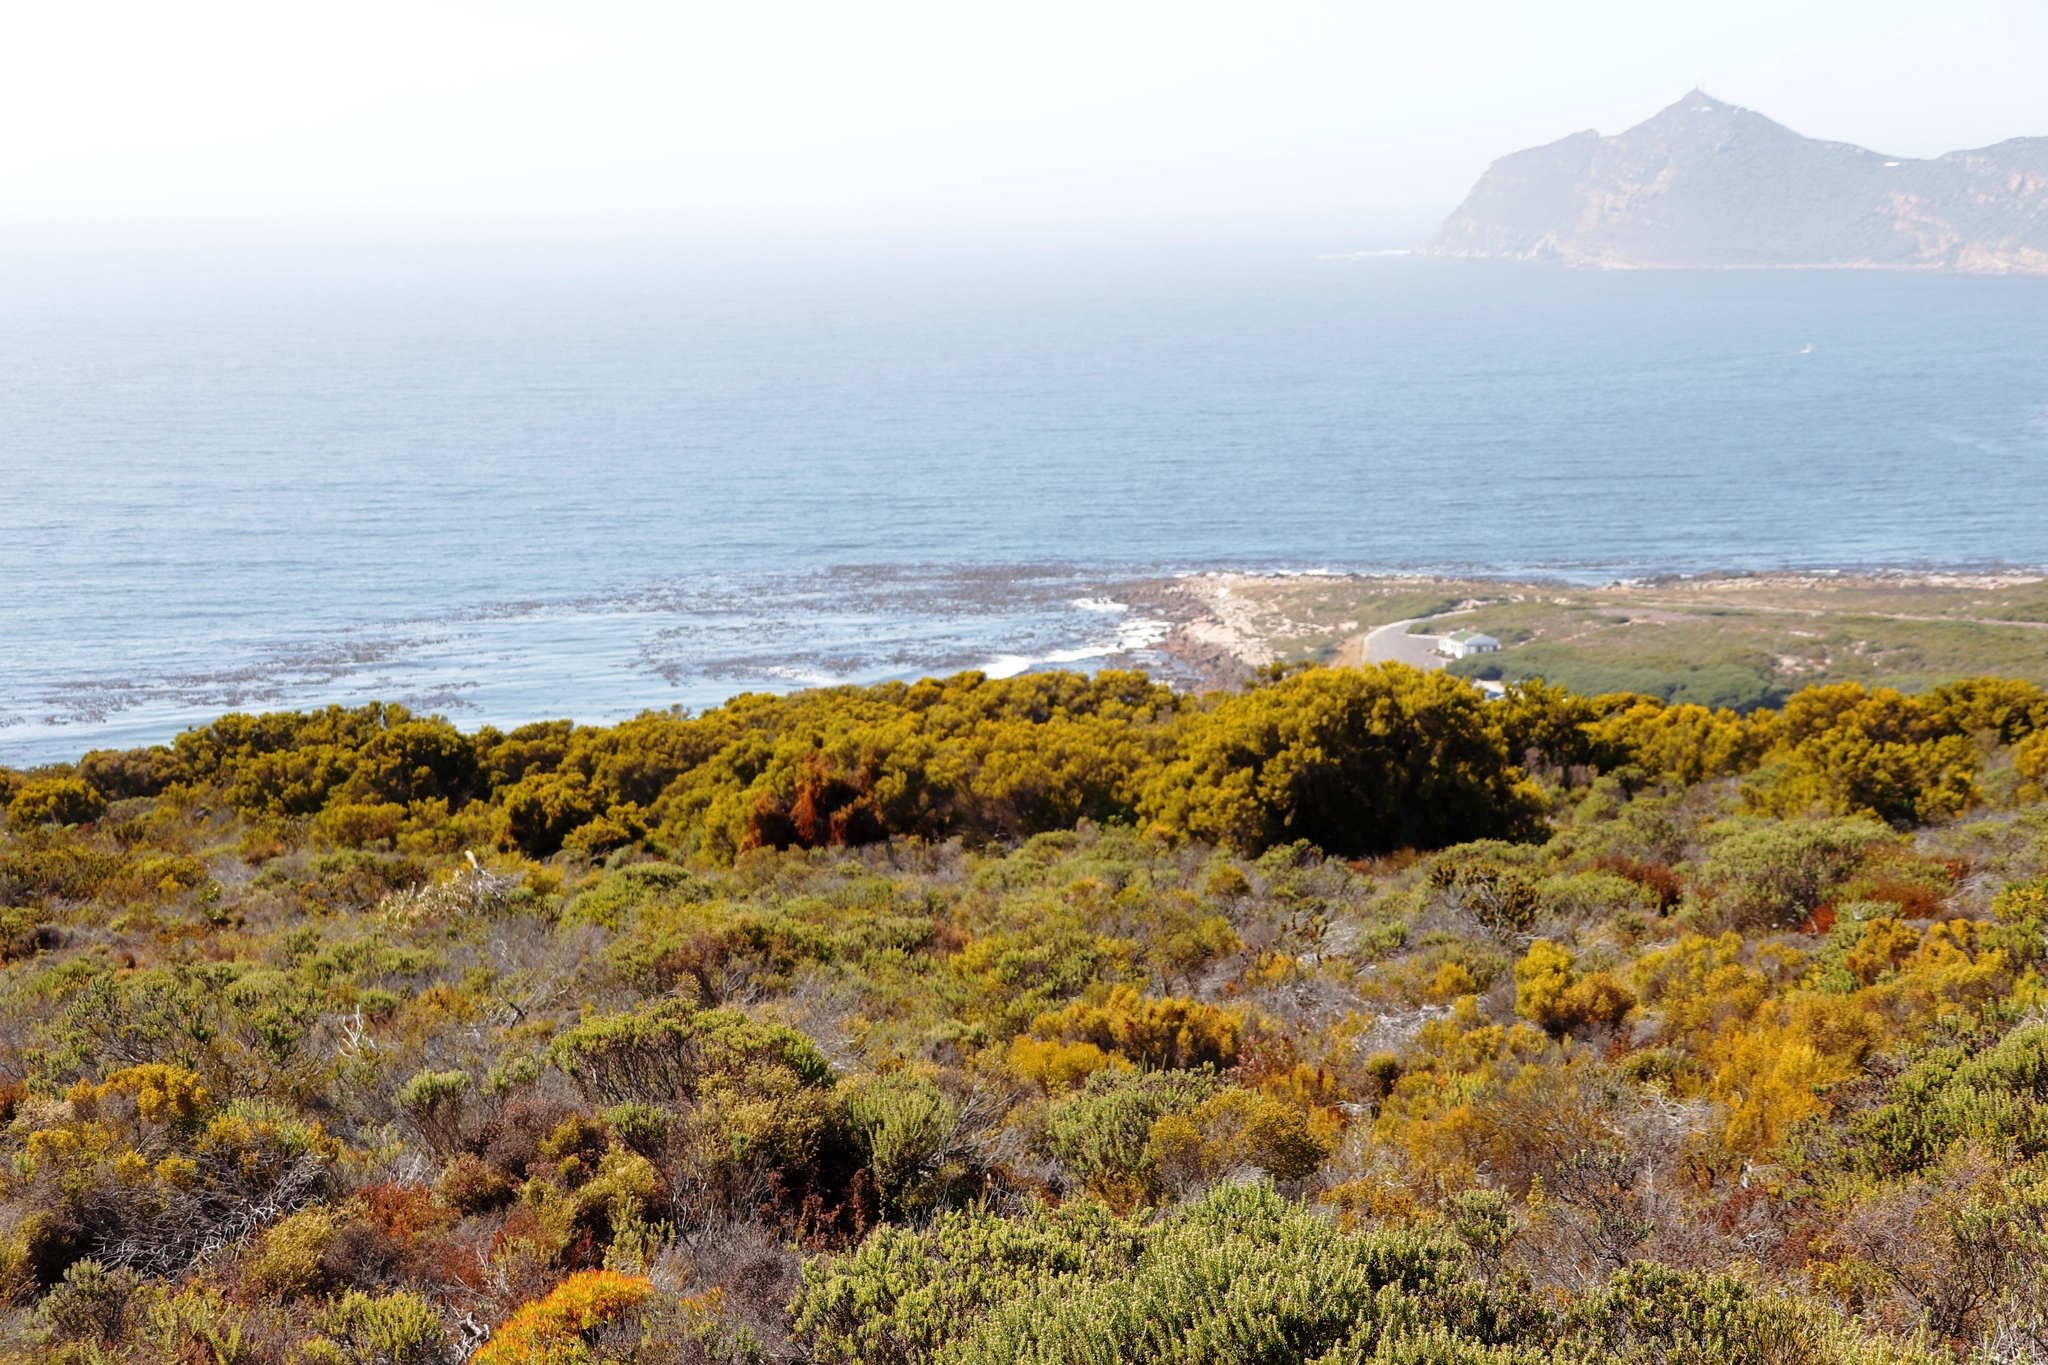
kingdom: Plantae
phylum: Tracheophyta
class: Magnoliopsida
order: Ericales
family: Ericaceae
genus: Erica
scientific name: Erica tristis
